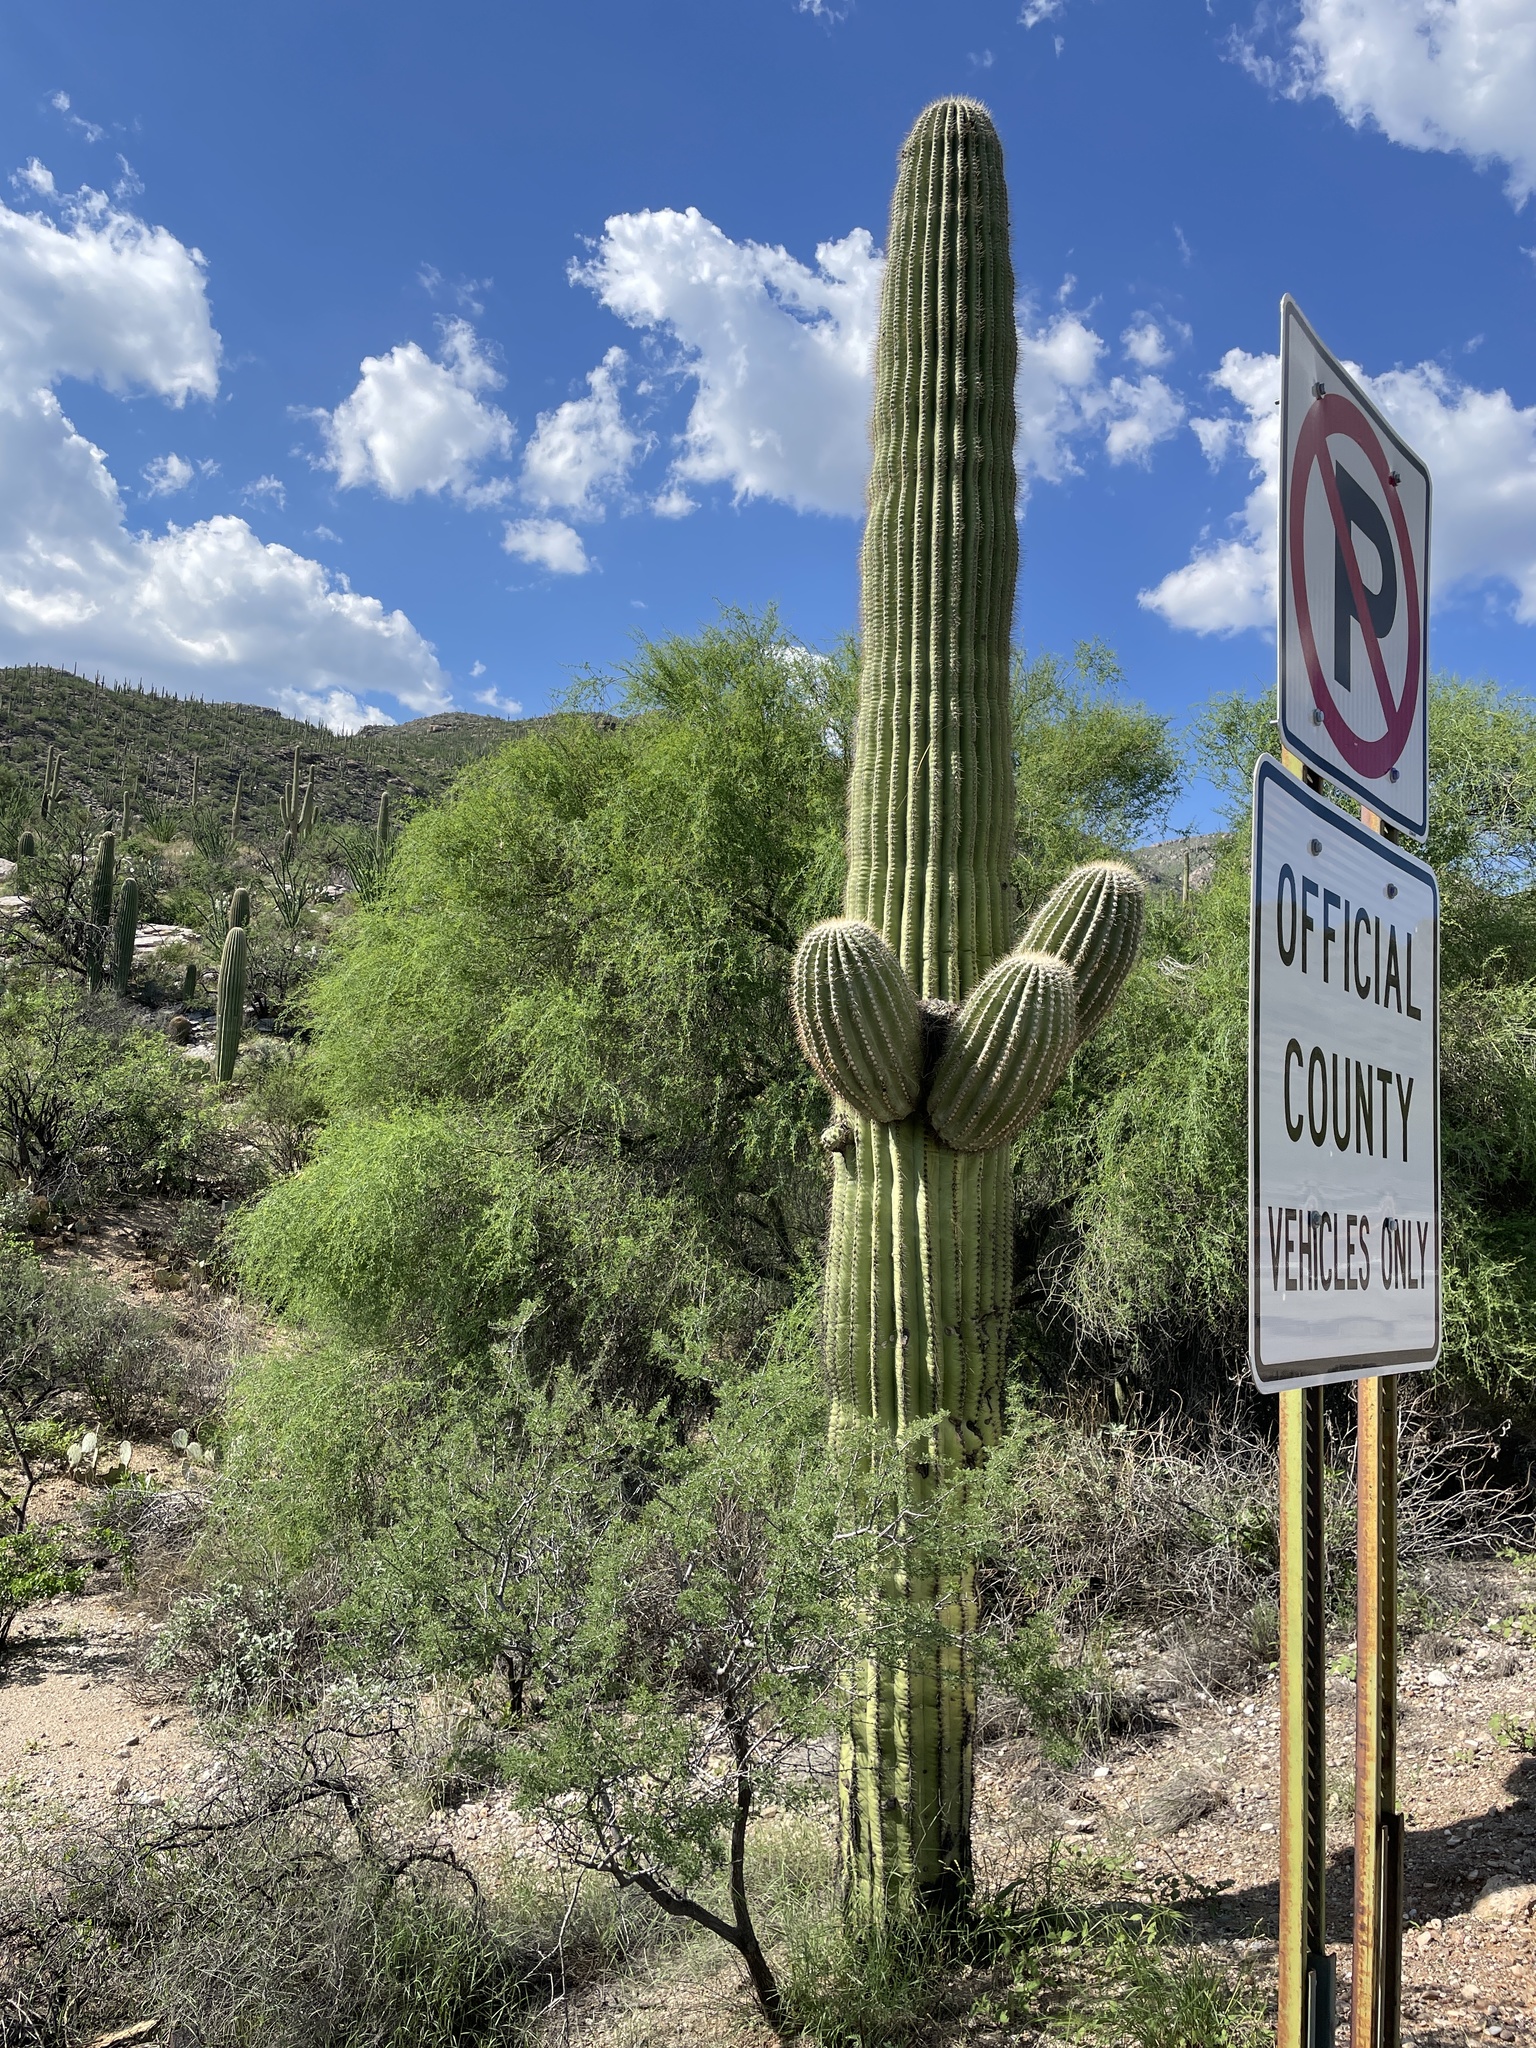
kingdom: Plantae
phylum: Tracheophyta
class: Magnoliopsida
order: Caryophyllales
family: Cactaceae
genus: Carnegiea
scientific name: Carnegiea gigantea
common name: Saguaro
